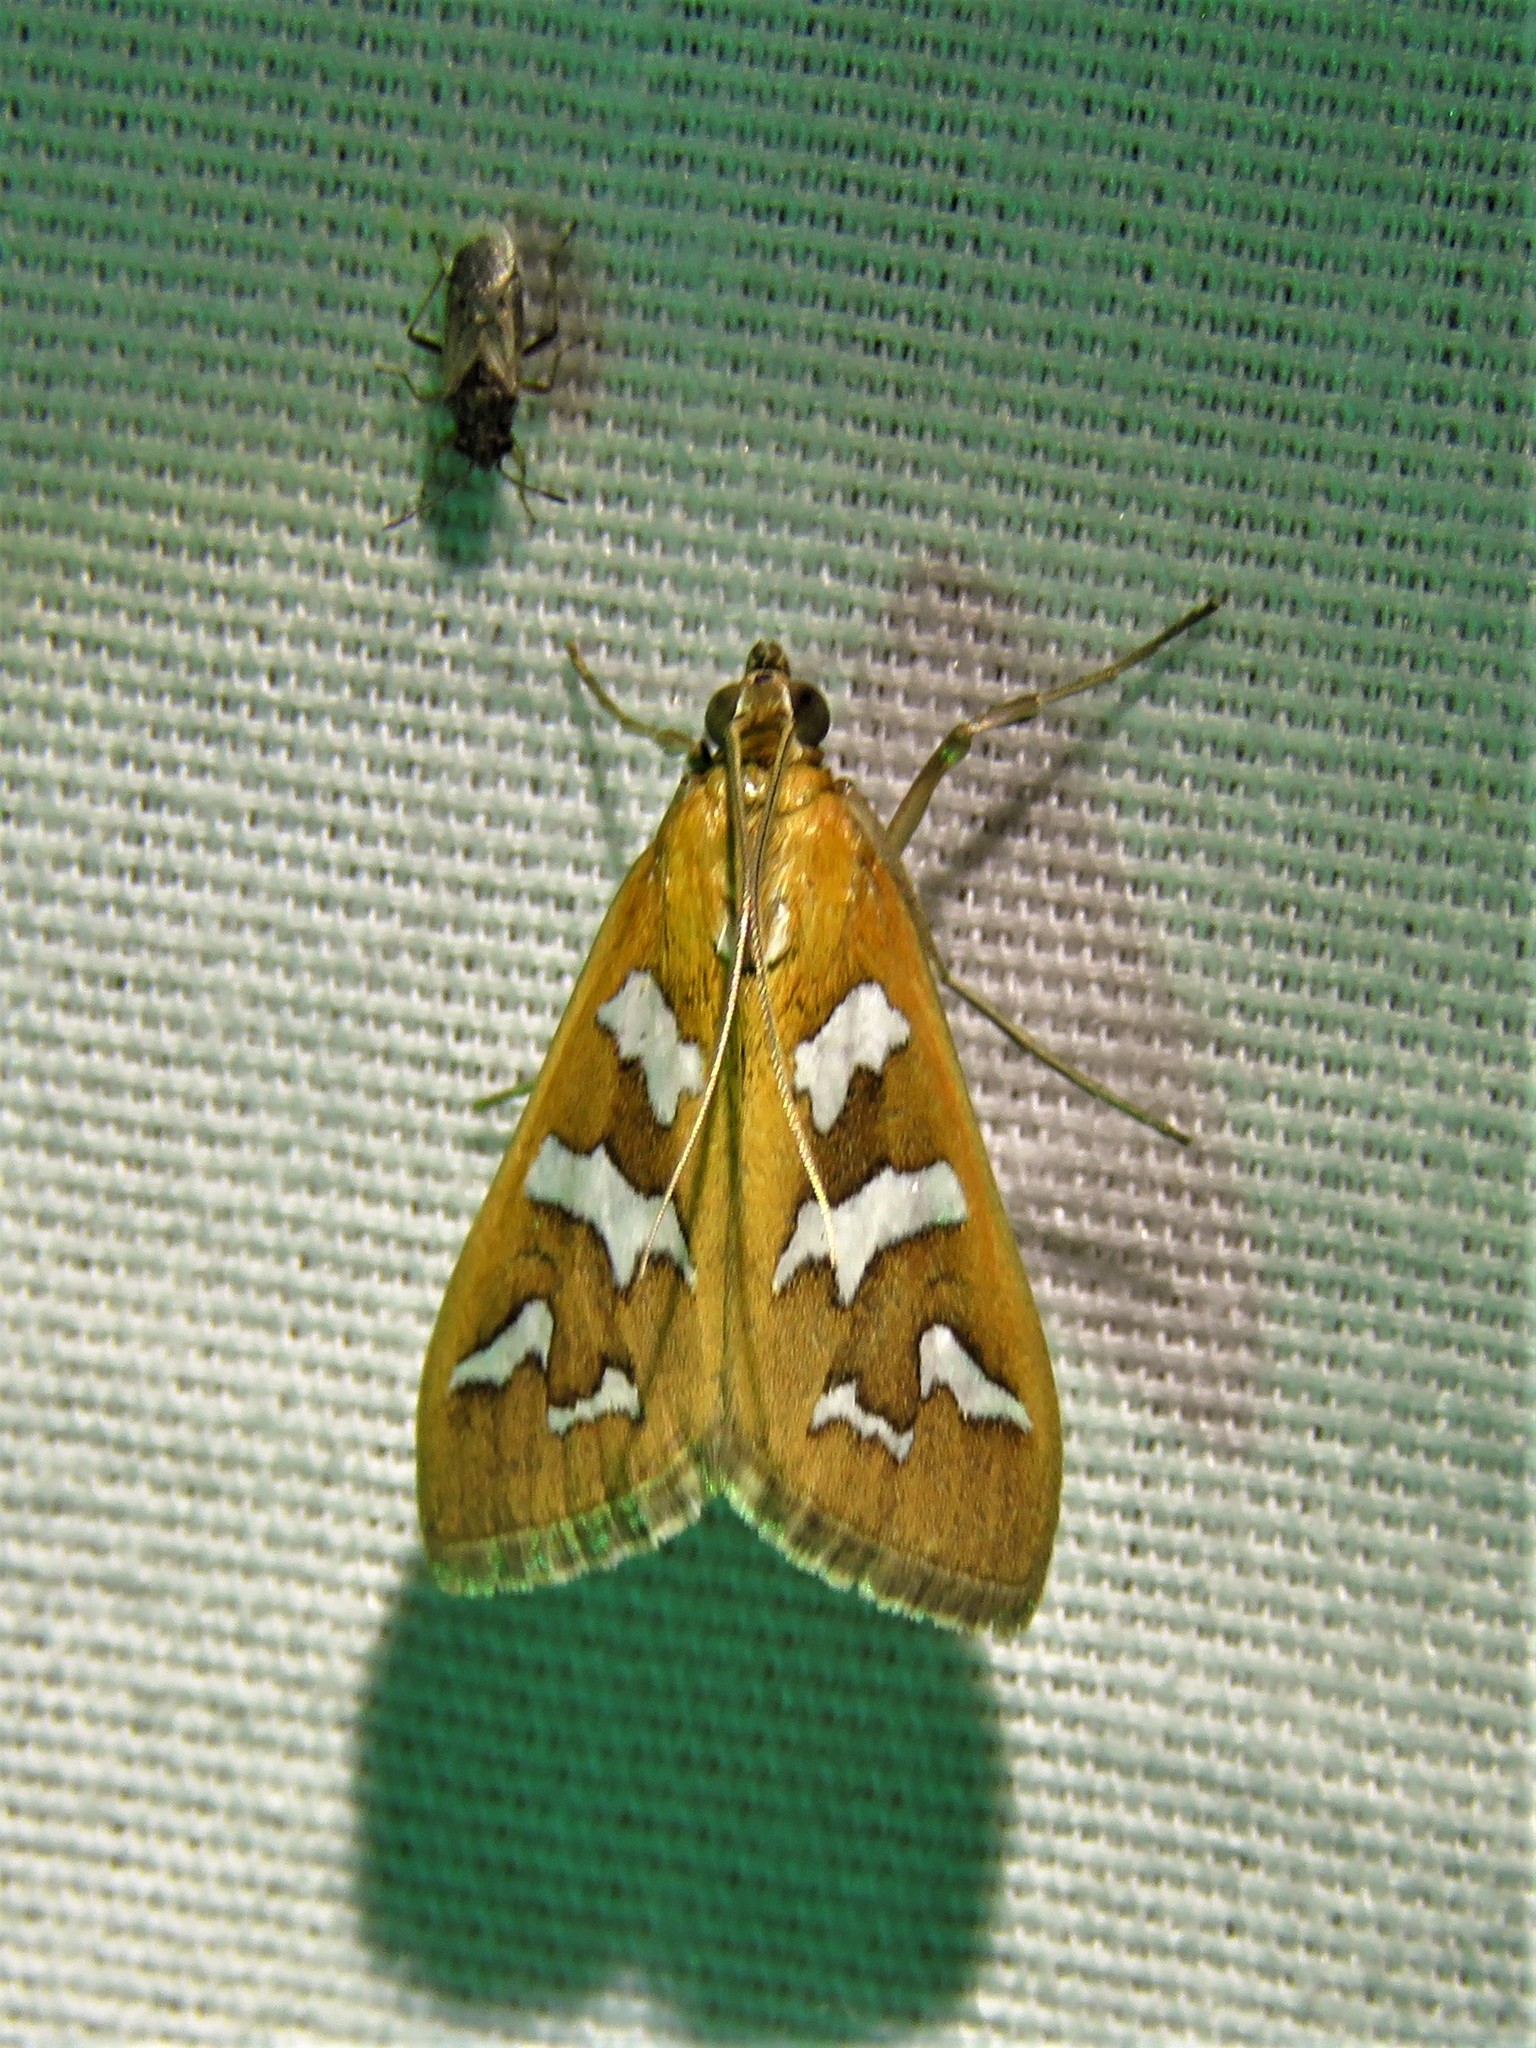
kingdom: Animalia
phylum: Arthropoda
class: Insecta
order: Lepidoptera
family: Crambidae
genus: Diastictis
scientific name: Diastictis fracturalis
